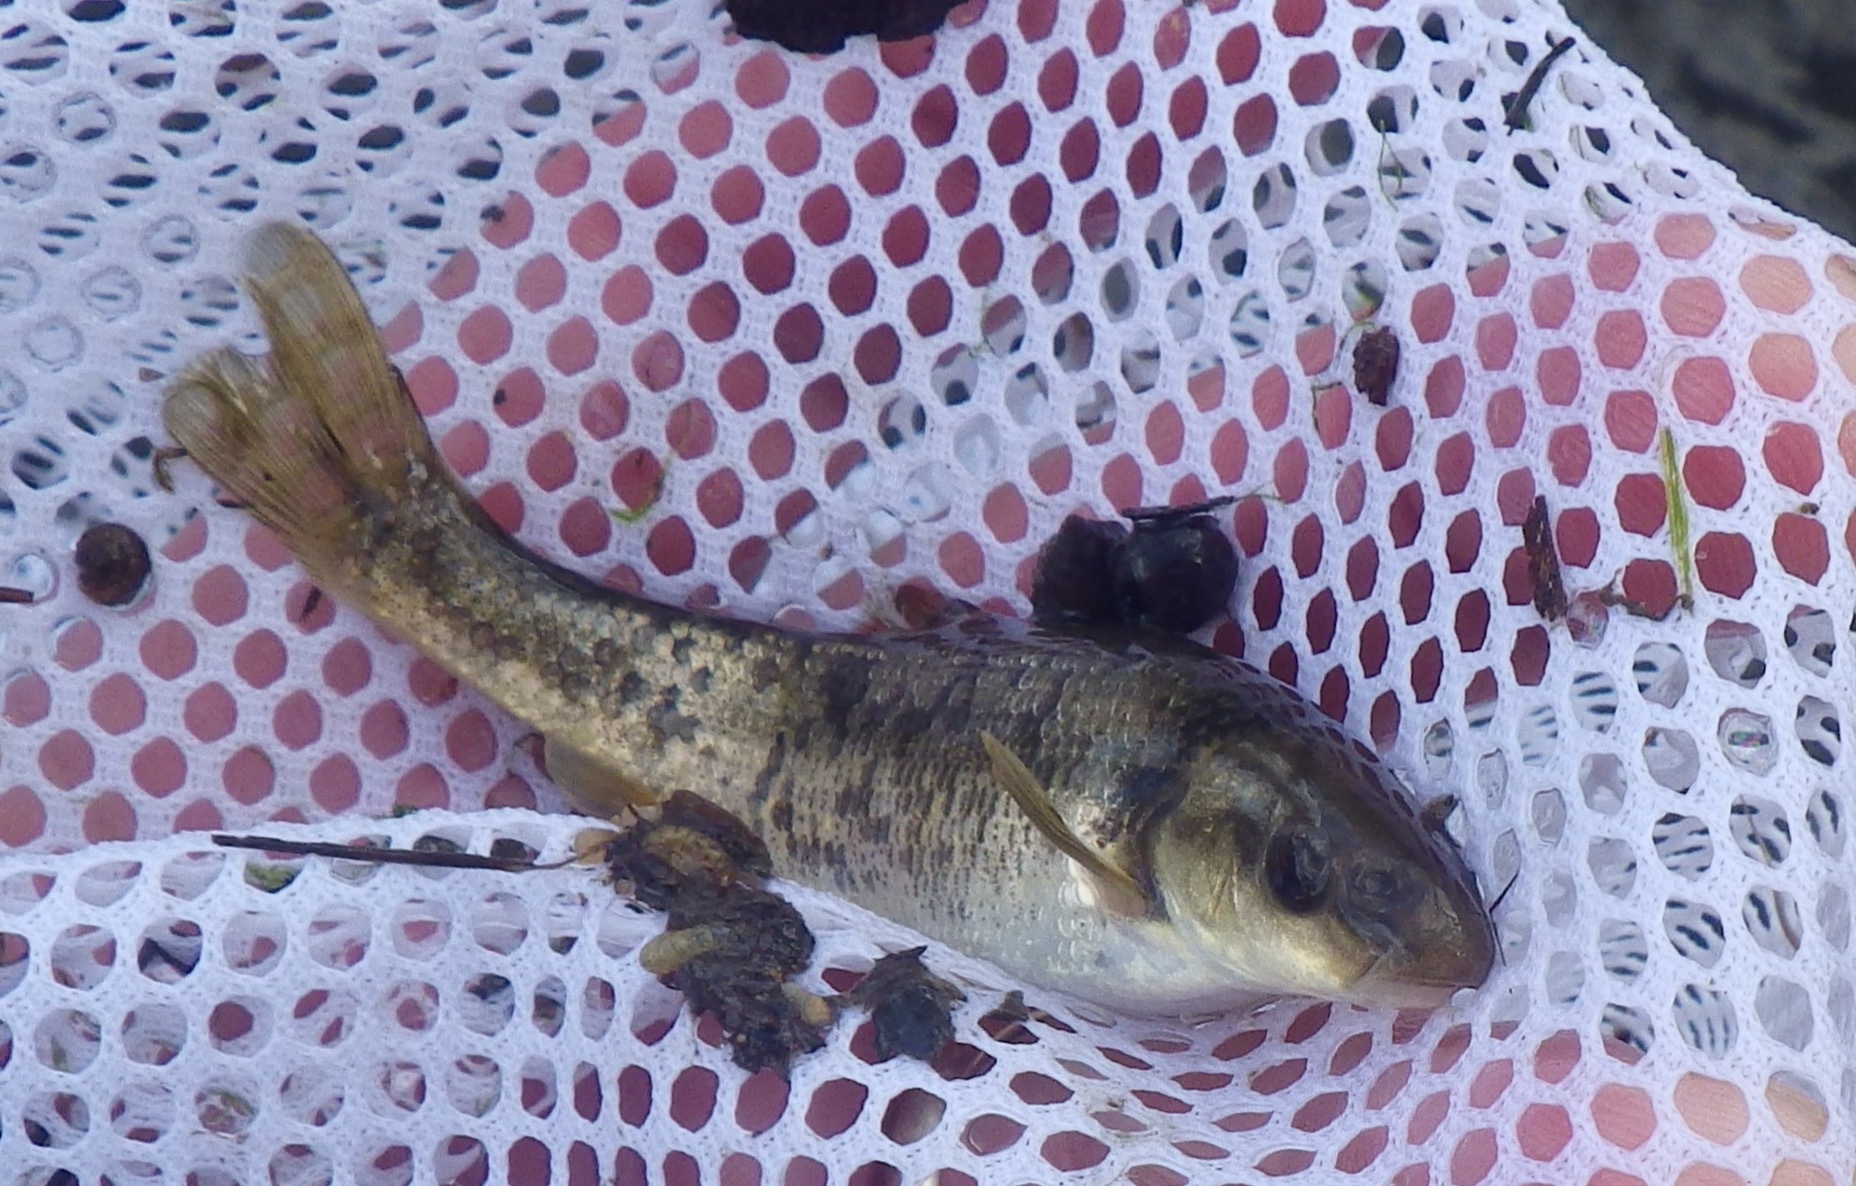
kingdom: Animalia
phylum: Chordata
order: Cypriniformes
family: Cyprinidae
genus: Campostoma
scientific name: Campostoma anomalum
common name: Central stoneroller
